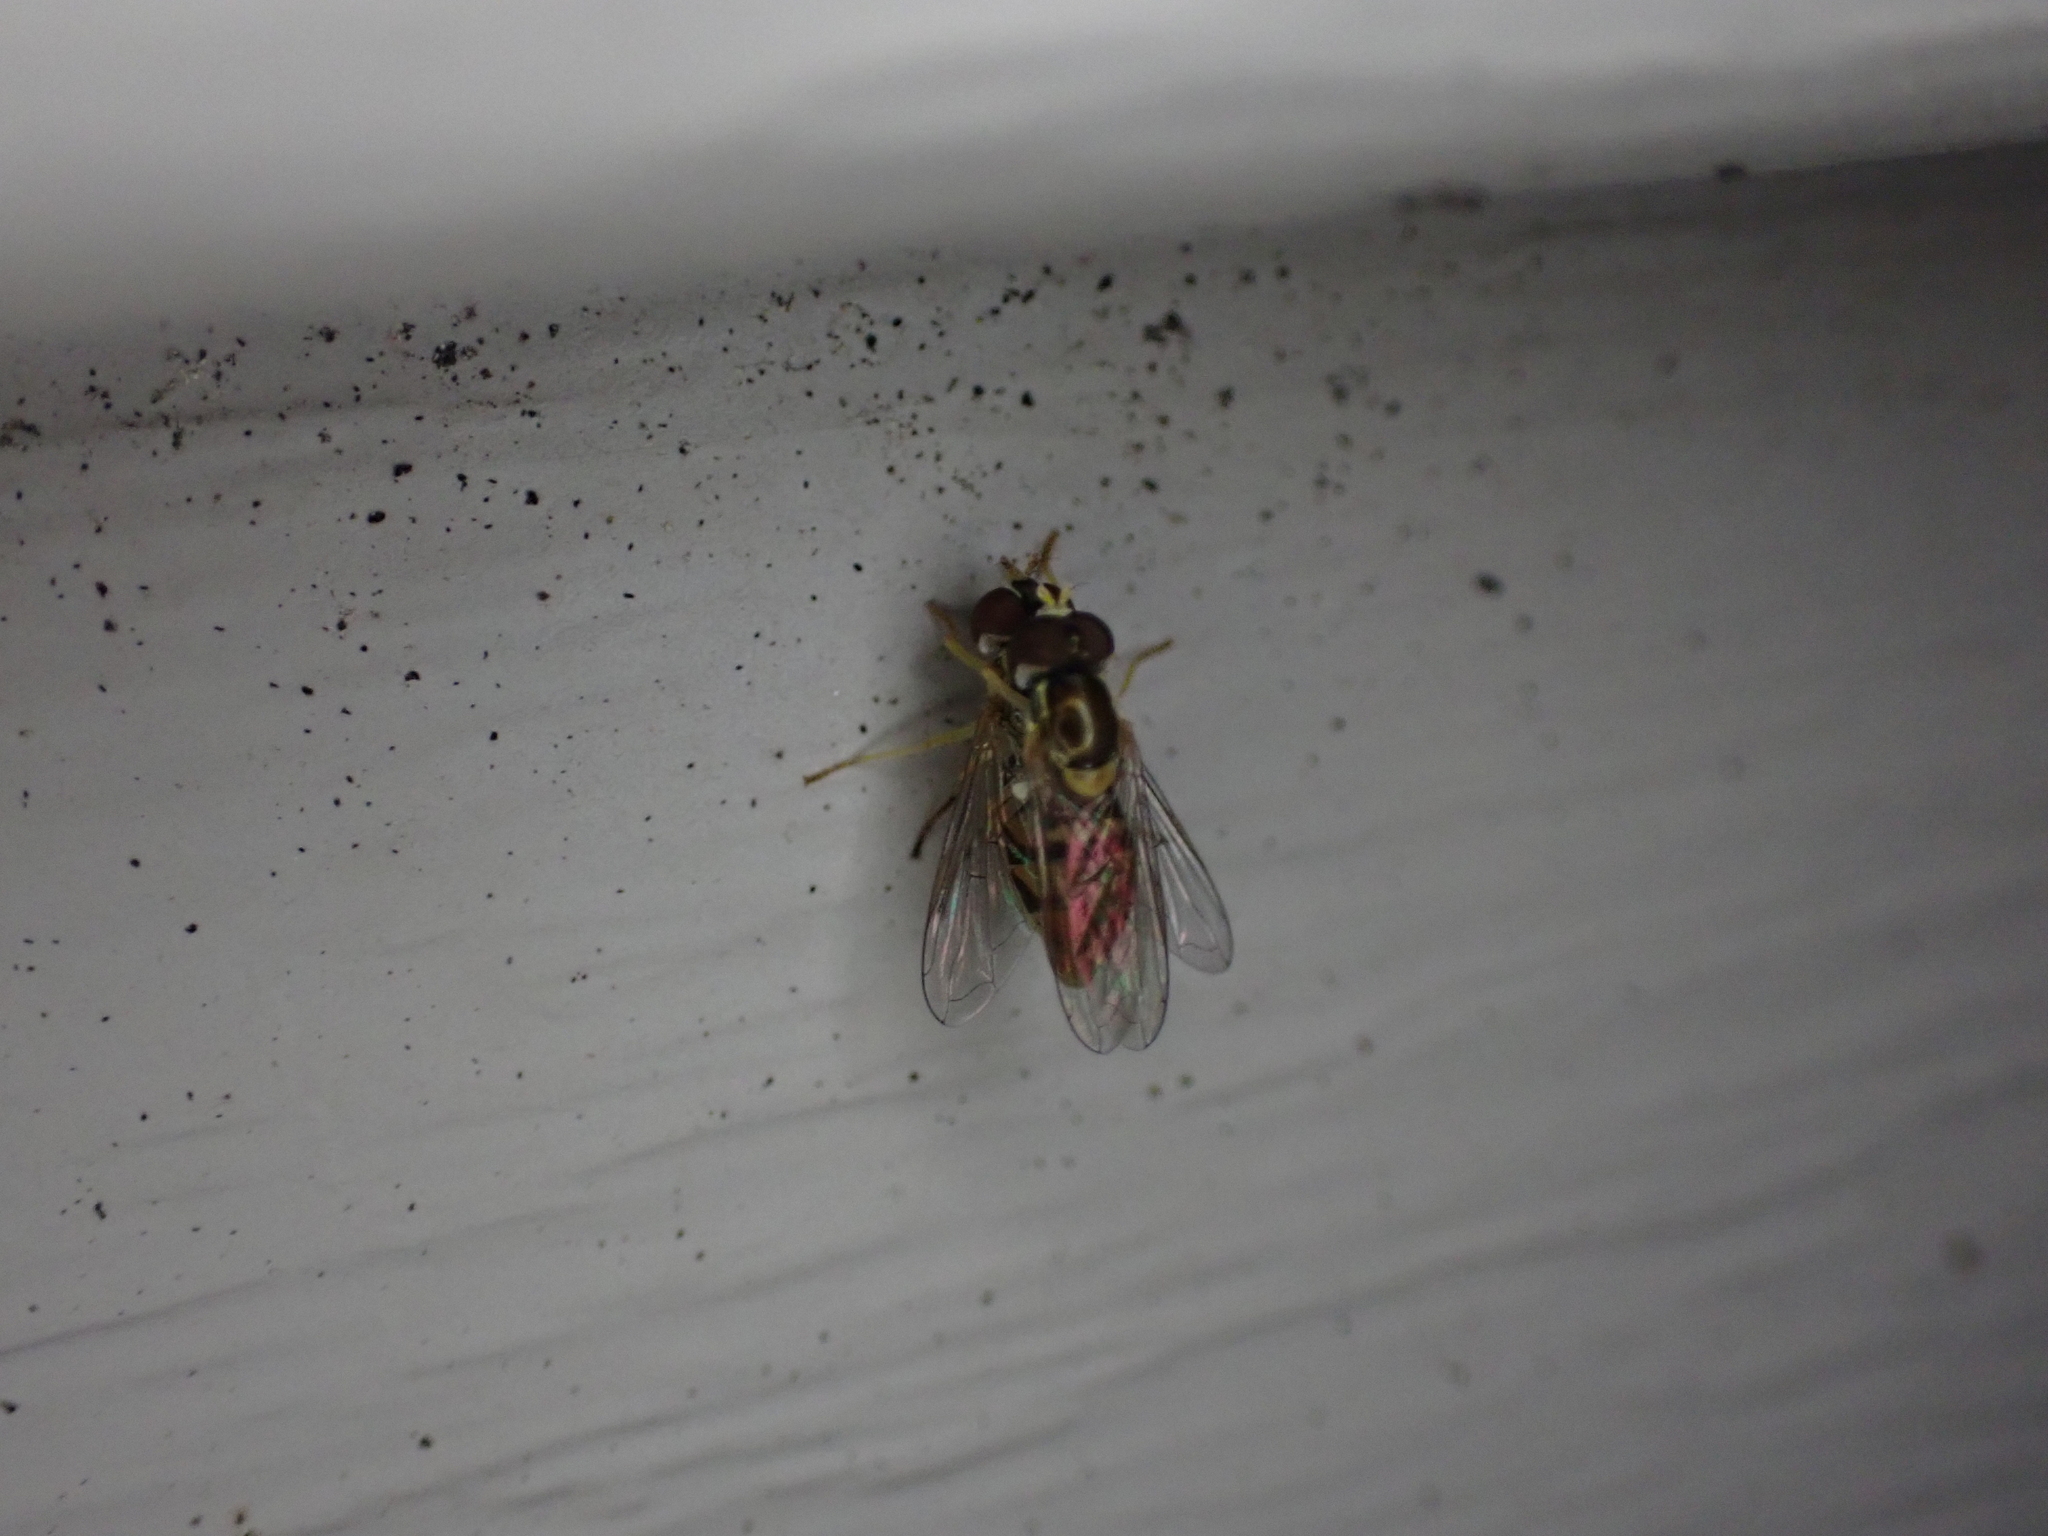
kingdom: Animalia
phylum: Arthropoda
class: Insecta
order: Diptera
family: Syrphidae
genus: Toxomerus
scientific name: Toxomerus marginatus
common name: Syrphid fly
